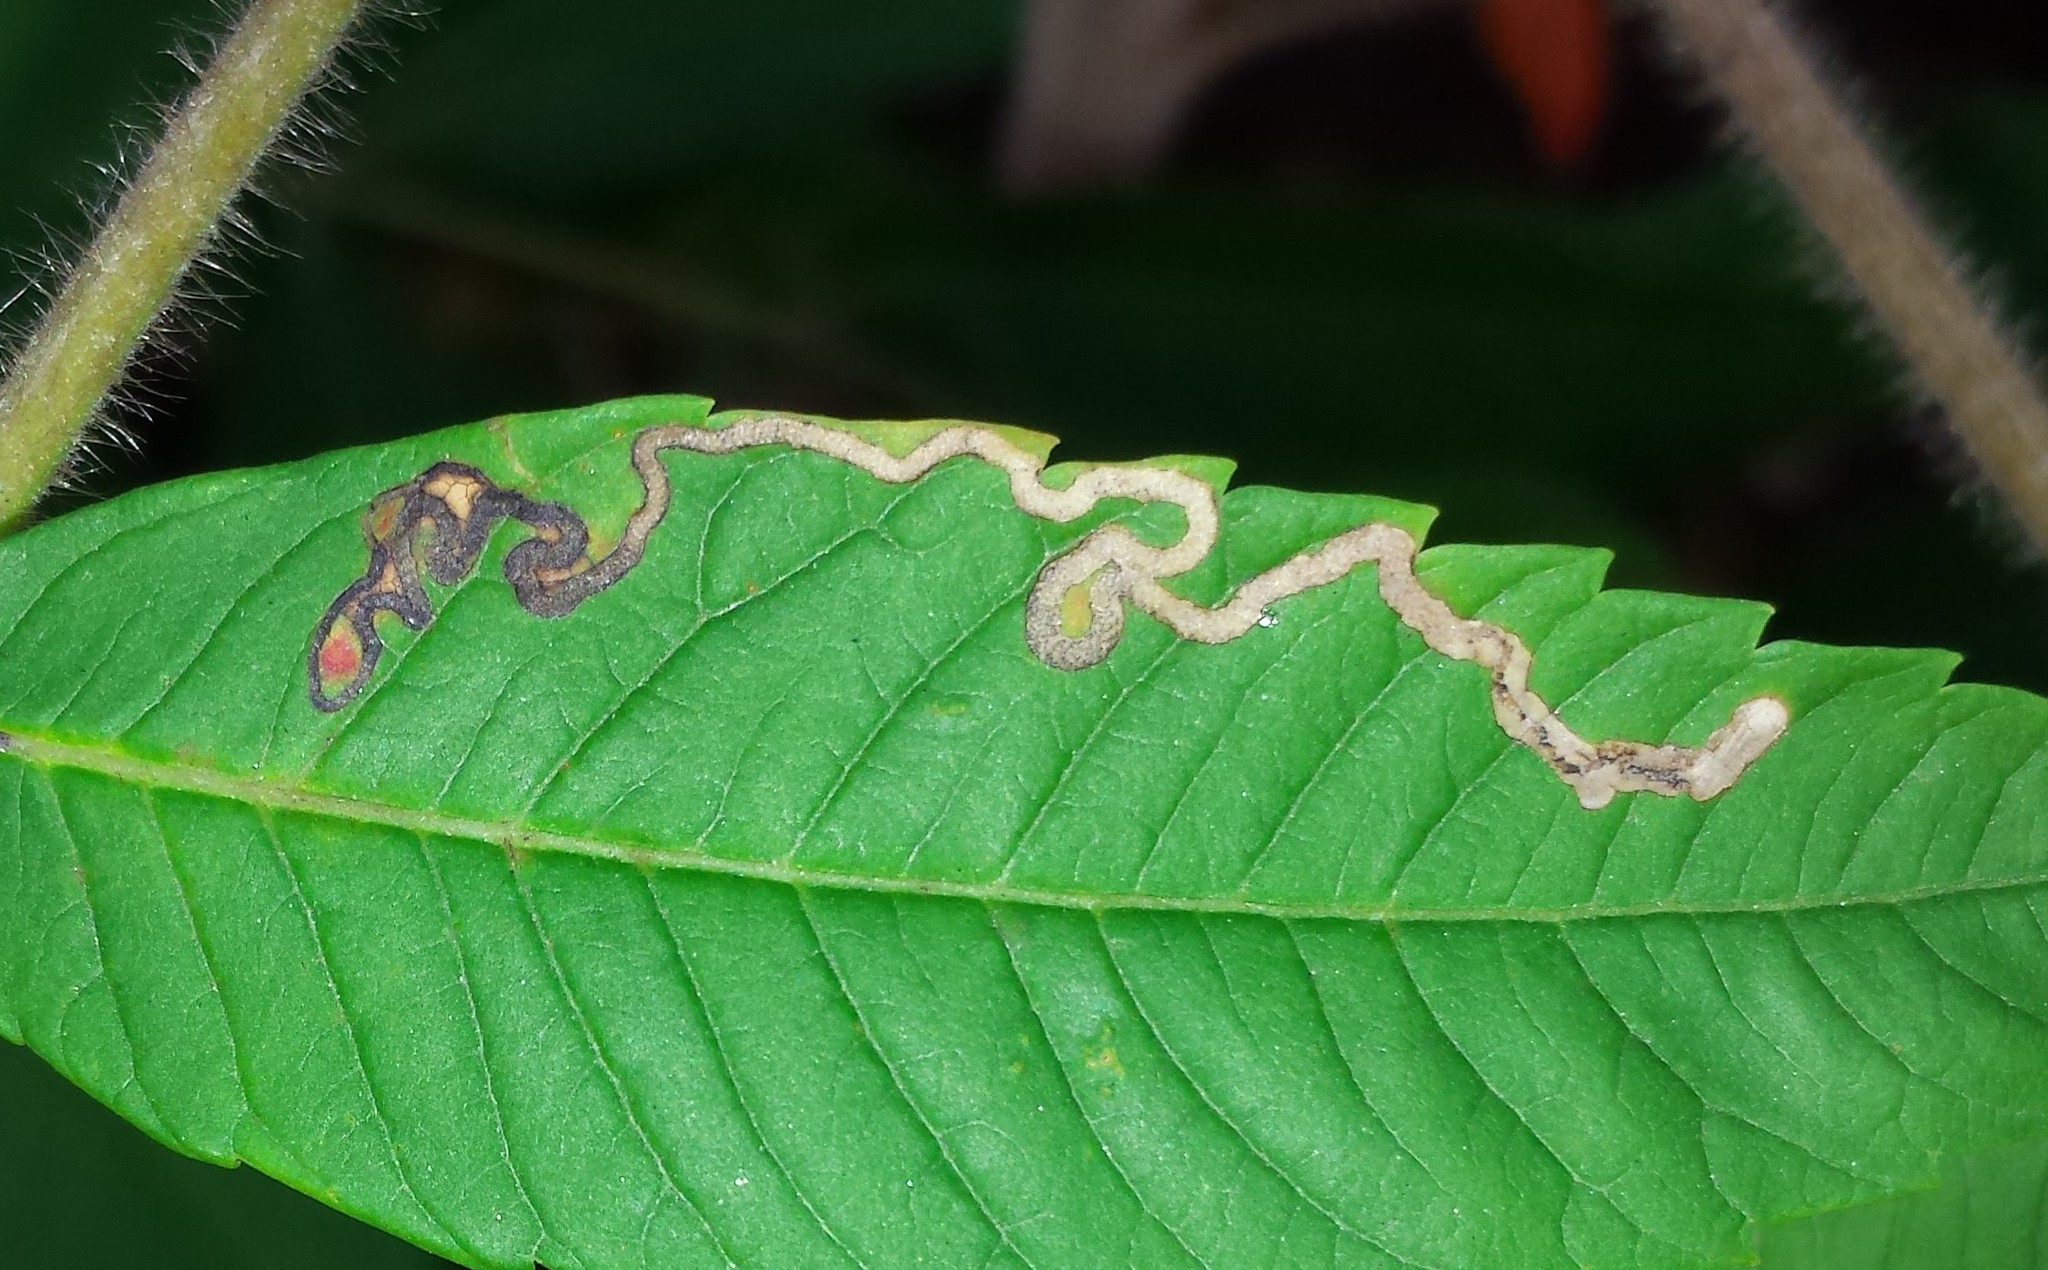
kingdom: Animalia
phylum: Arthropoda
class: Insecta
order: Lepidoptera
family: Nepticulidae
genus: Stigmella
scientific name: Stigmella intermedia
